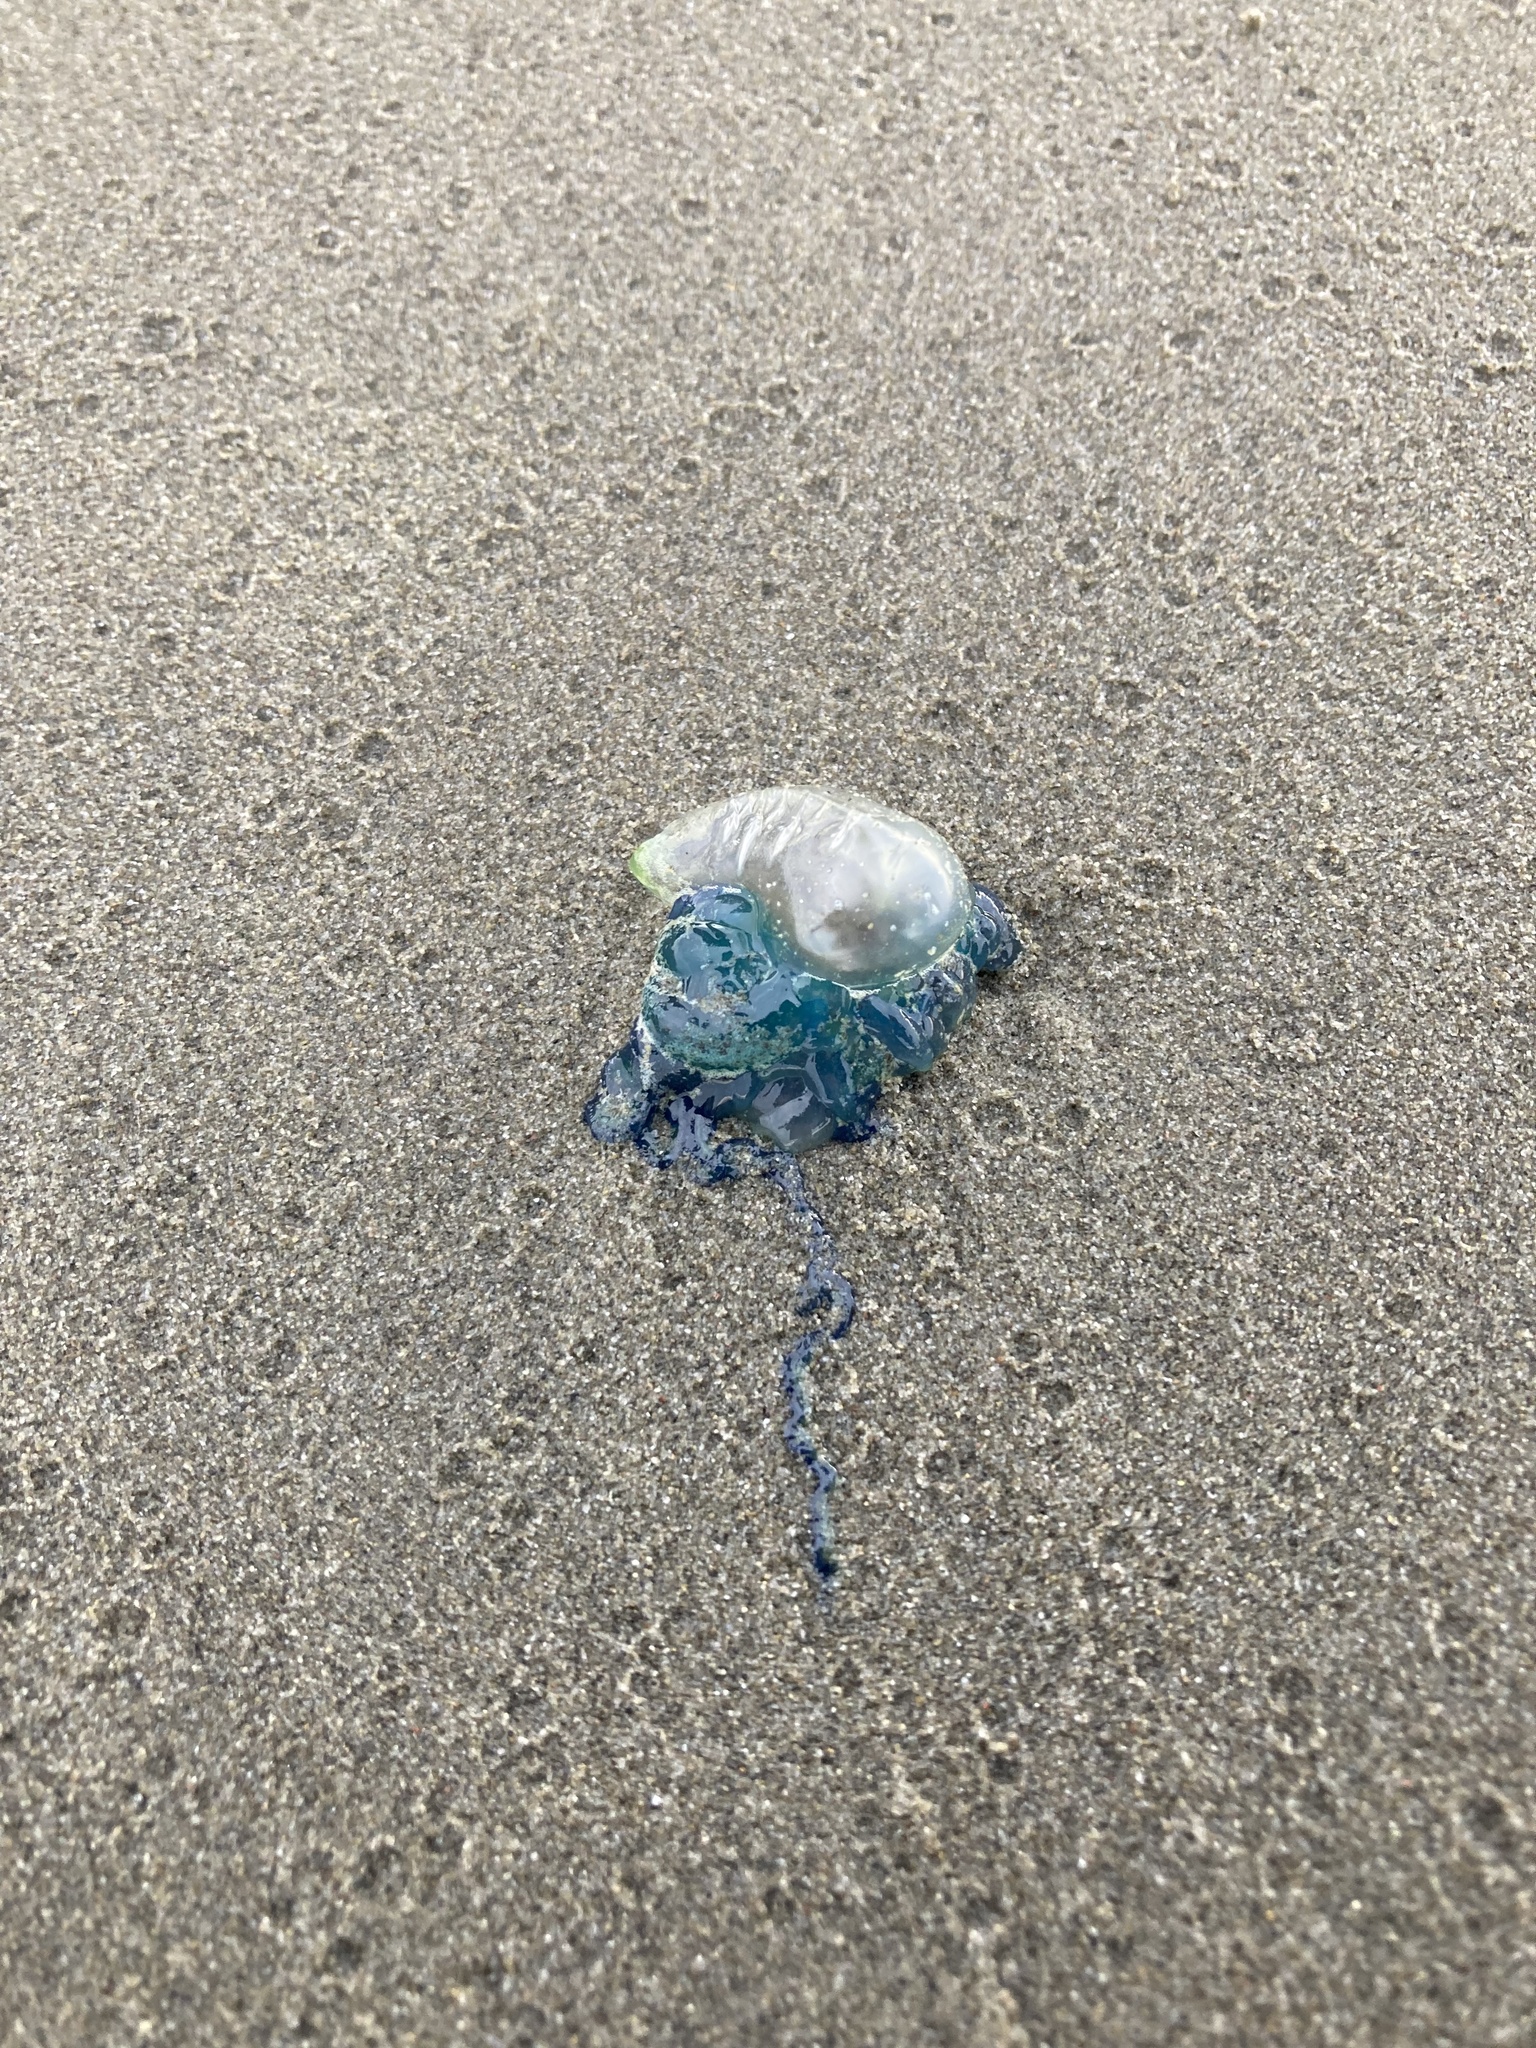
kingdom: Animalia
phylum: Cnidaria
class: Hydrozoa
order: Siphonophorae
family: Physaliidae
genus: Physalia
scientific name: Physalia physalis
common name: Portuguese man-of-war
